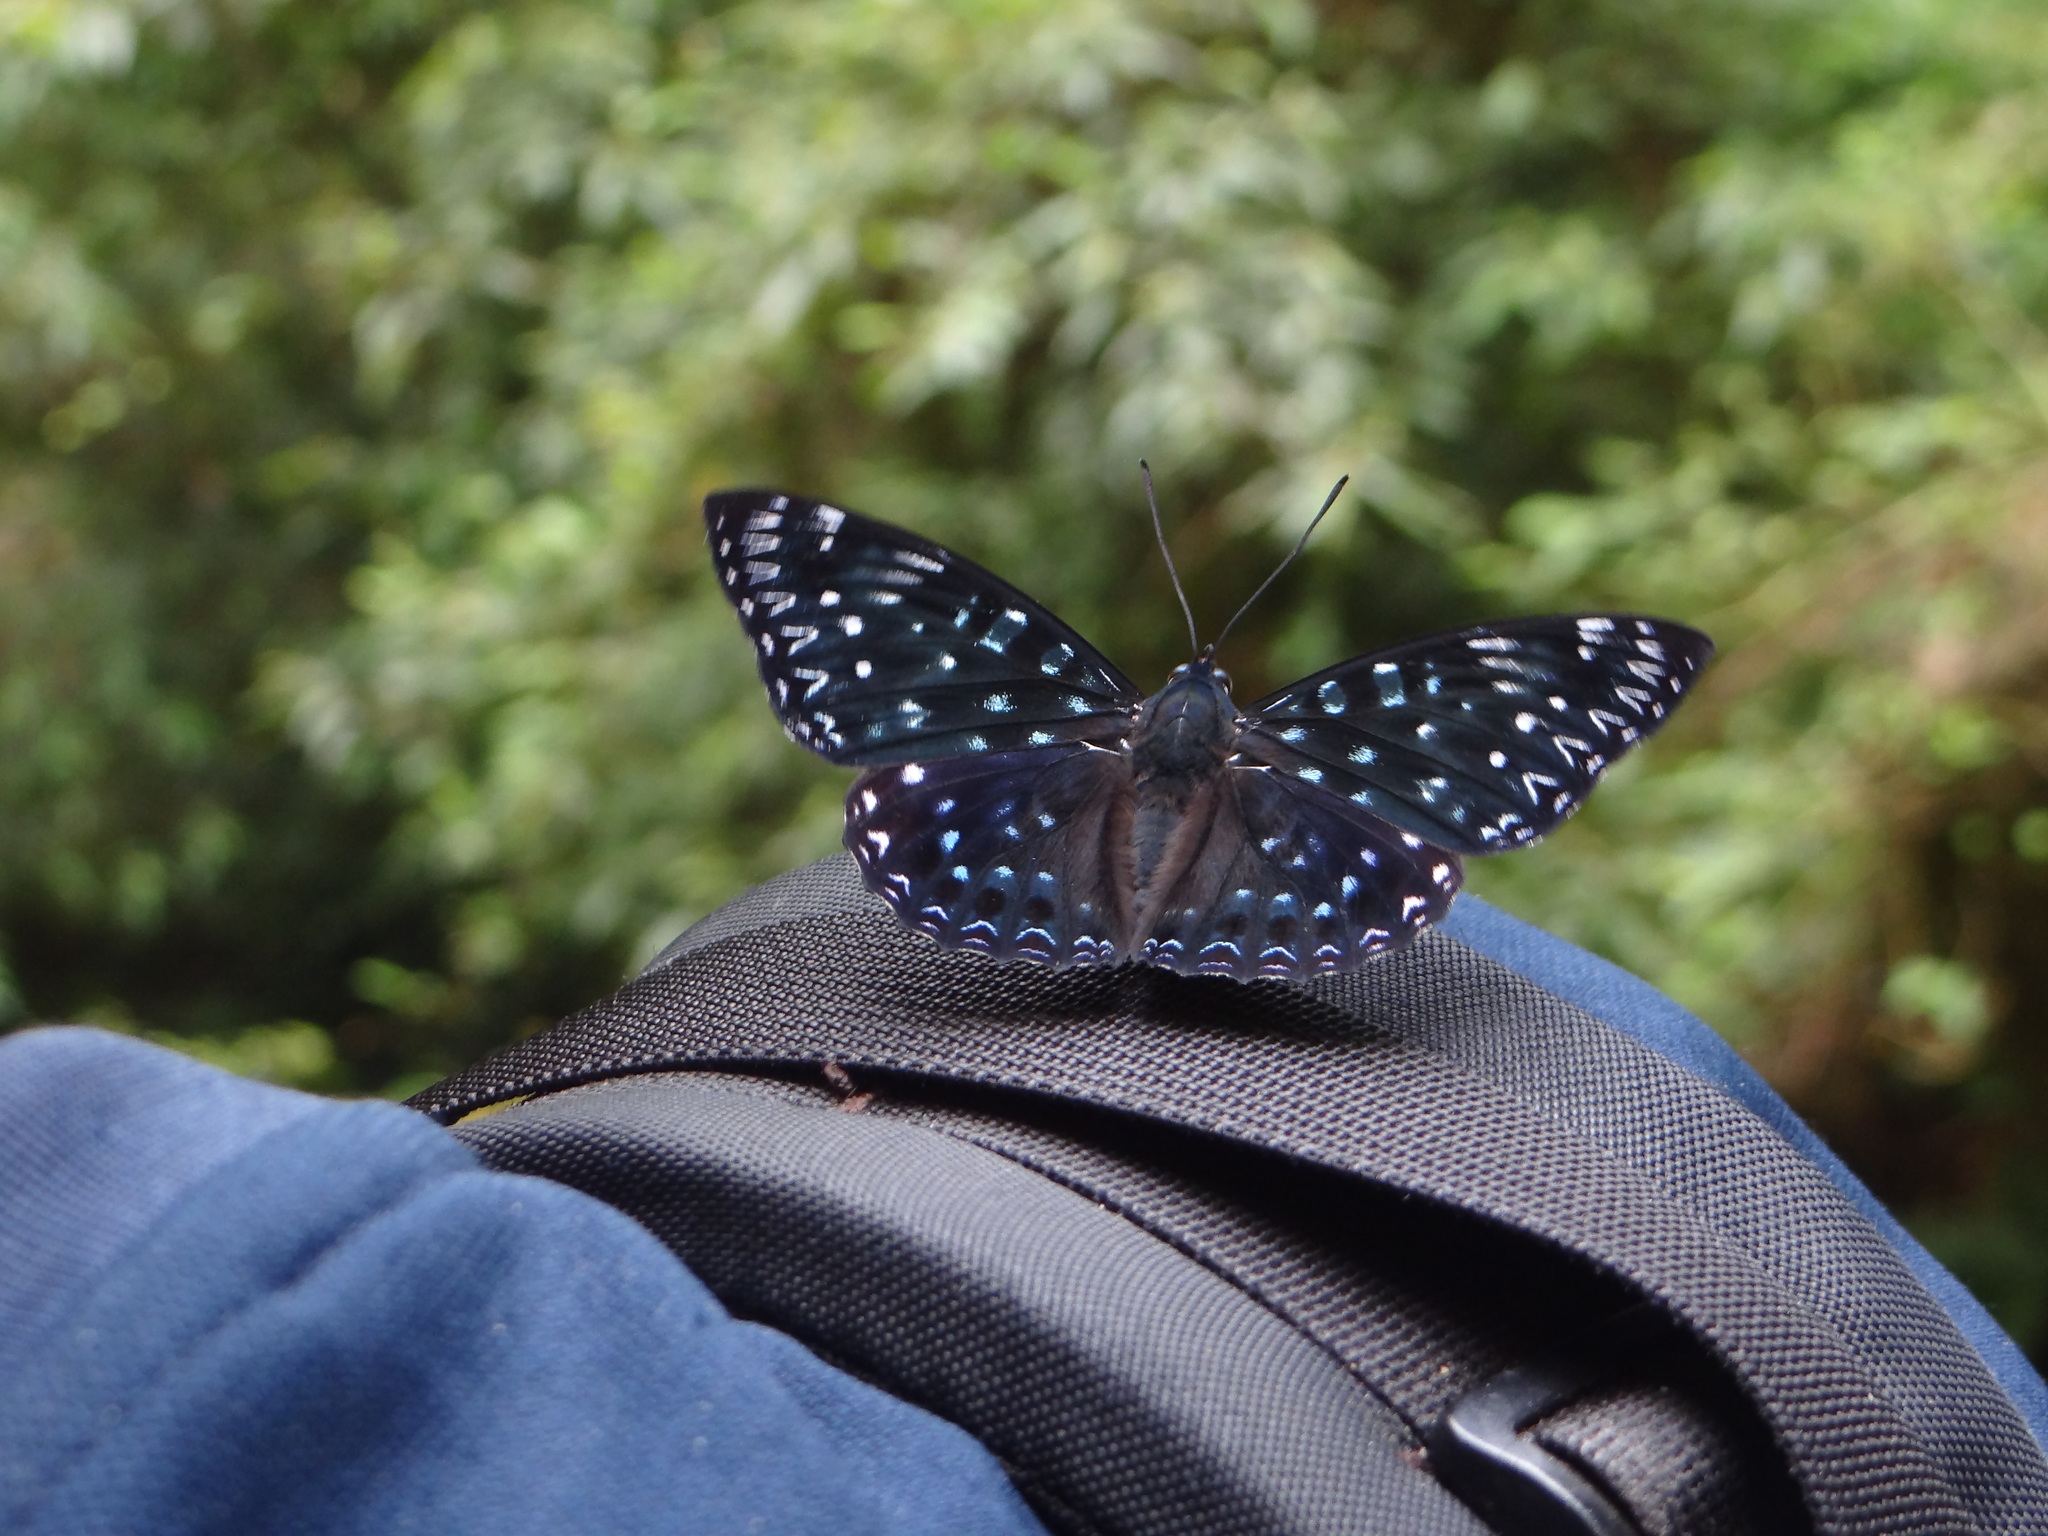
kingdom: Animalia
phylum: Arthropoda
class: Insecta
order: Lepidoptera
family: Nymphalidae
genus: Dichorragia
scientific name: Dichorragia nesimachus
